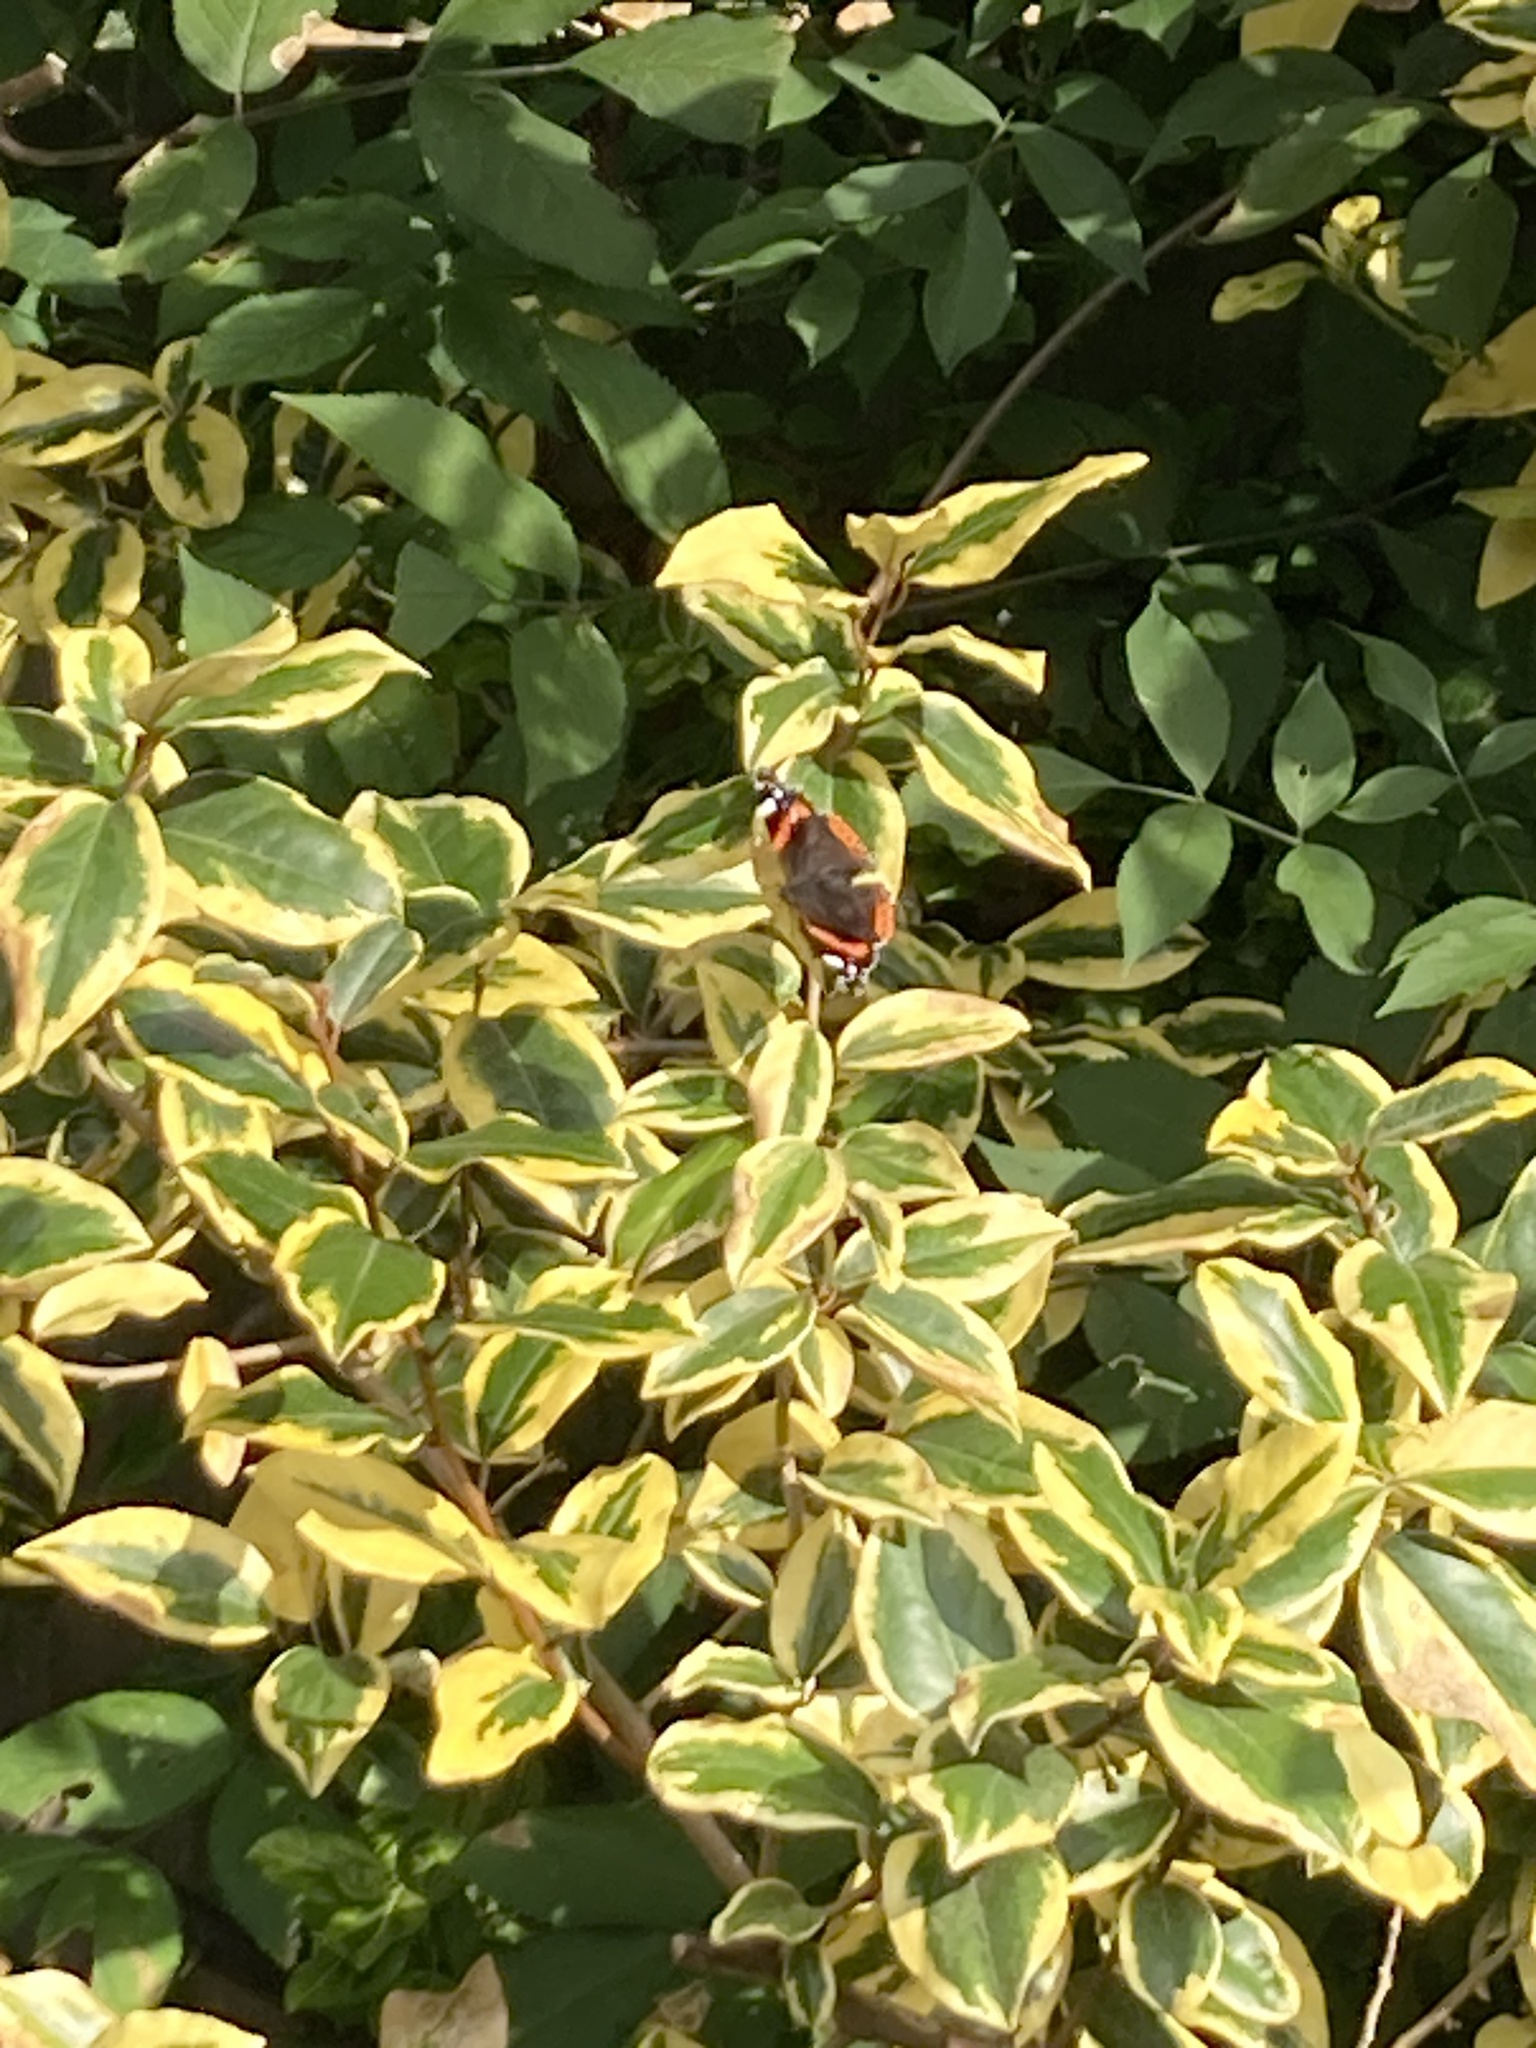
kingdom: Animalia
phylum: Arthropoda
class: Insecta
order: Lepidoptera
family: Nymphalidae
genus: Vanessa
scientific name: Vanessa atalanta
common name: Red admiral
